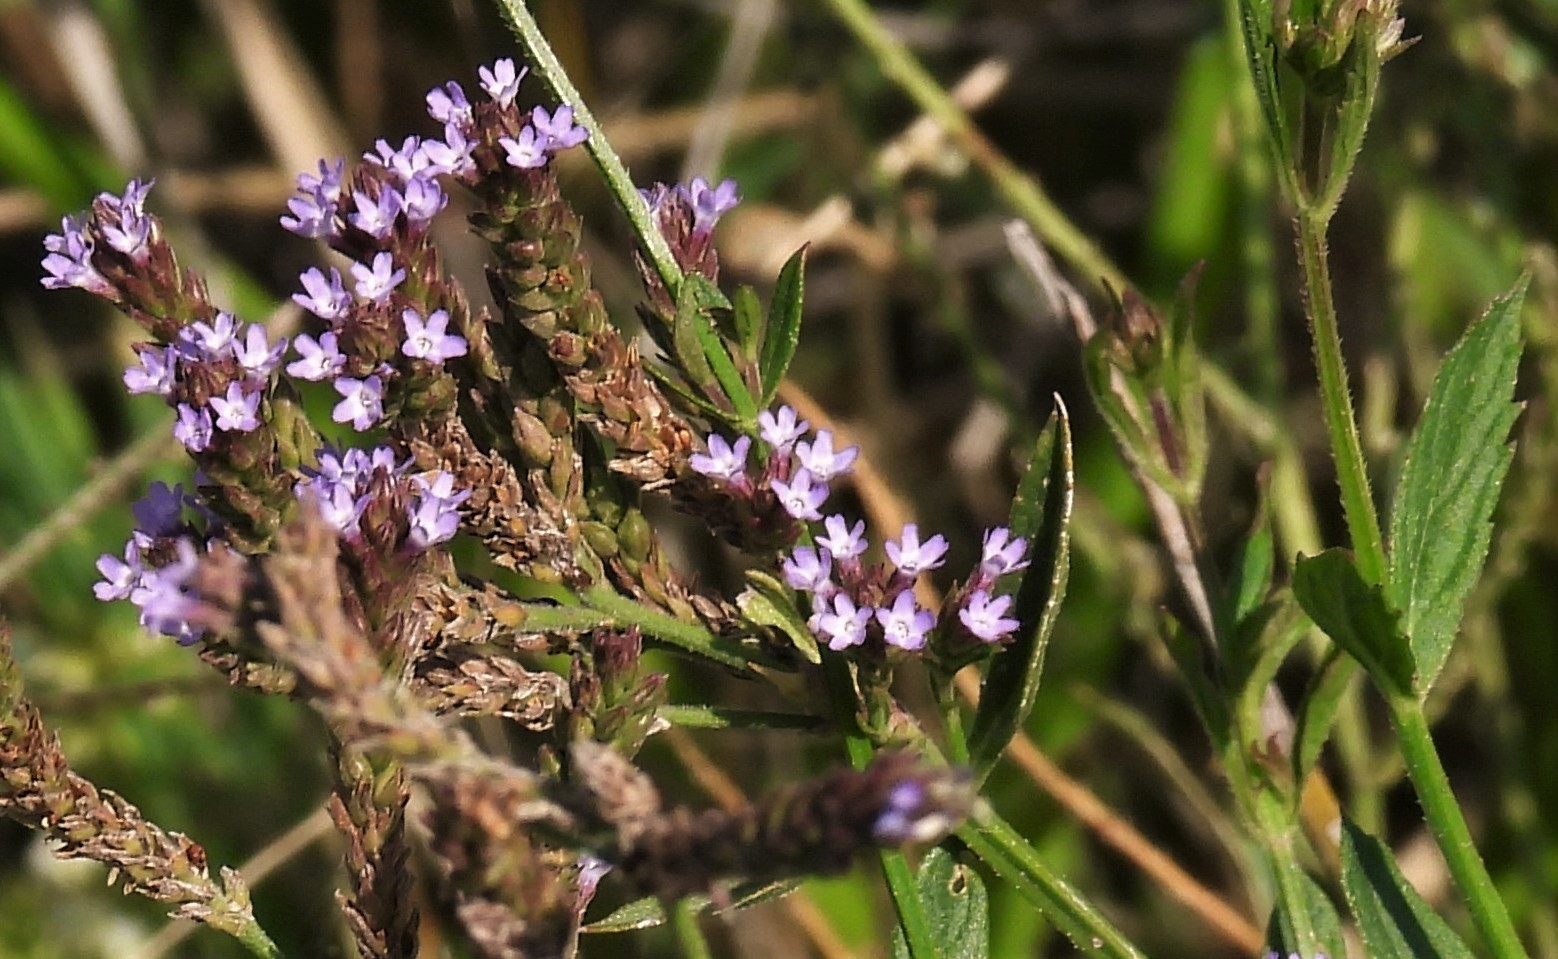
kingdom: Plantae
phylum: Tracheophyta
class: Magnoliopsida
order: Lamiales
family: Verbenaceae
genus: Verbena
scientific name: Verbena bonariensis
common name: Purpletop vervain
